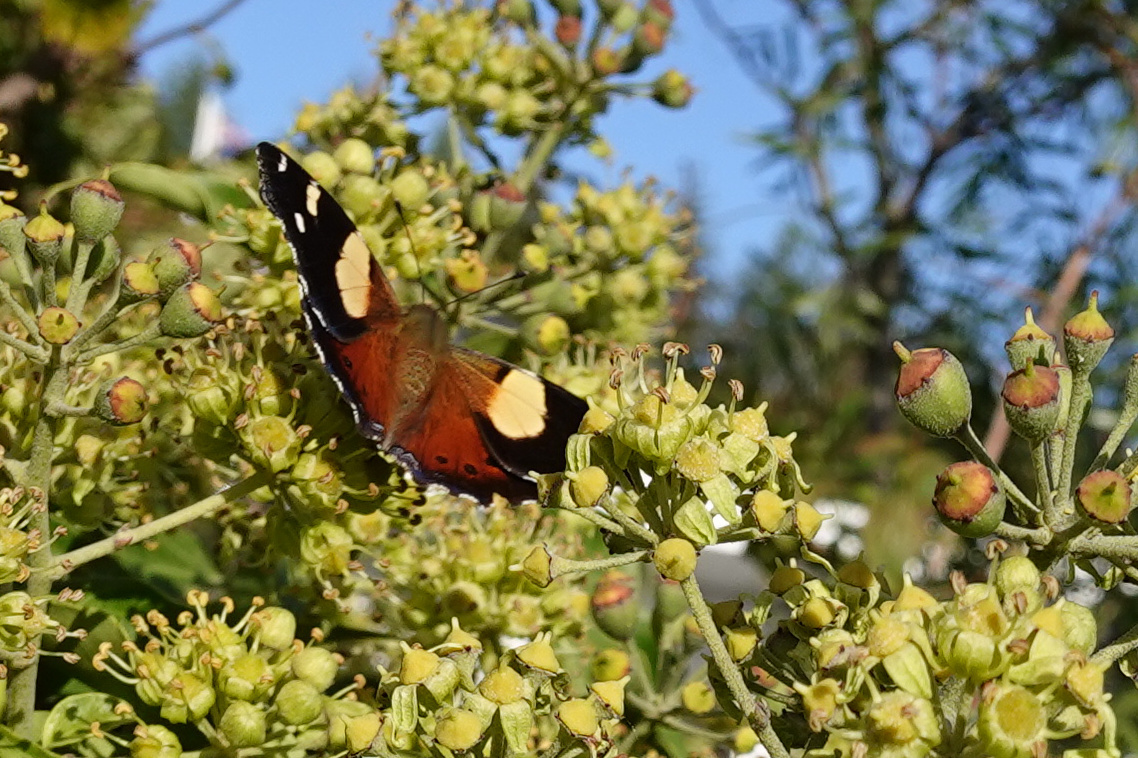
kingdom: Animalia
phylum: Arthropoda
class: Insecta
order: Lepidoptera
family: Nymphalidae
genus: Vanessa
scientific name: Vanessa itea
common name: Yellow admiral
